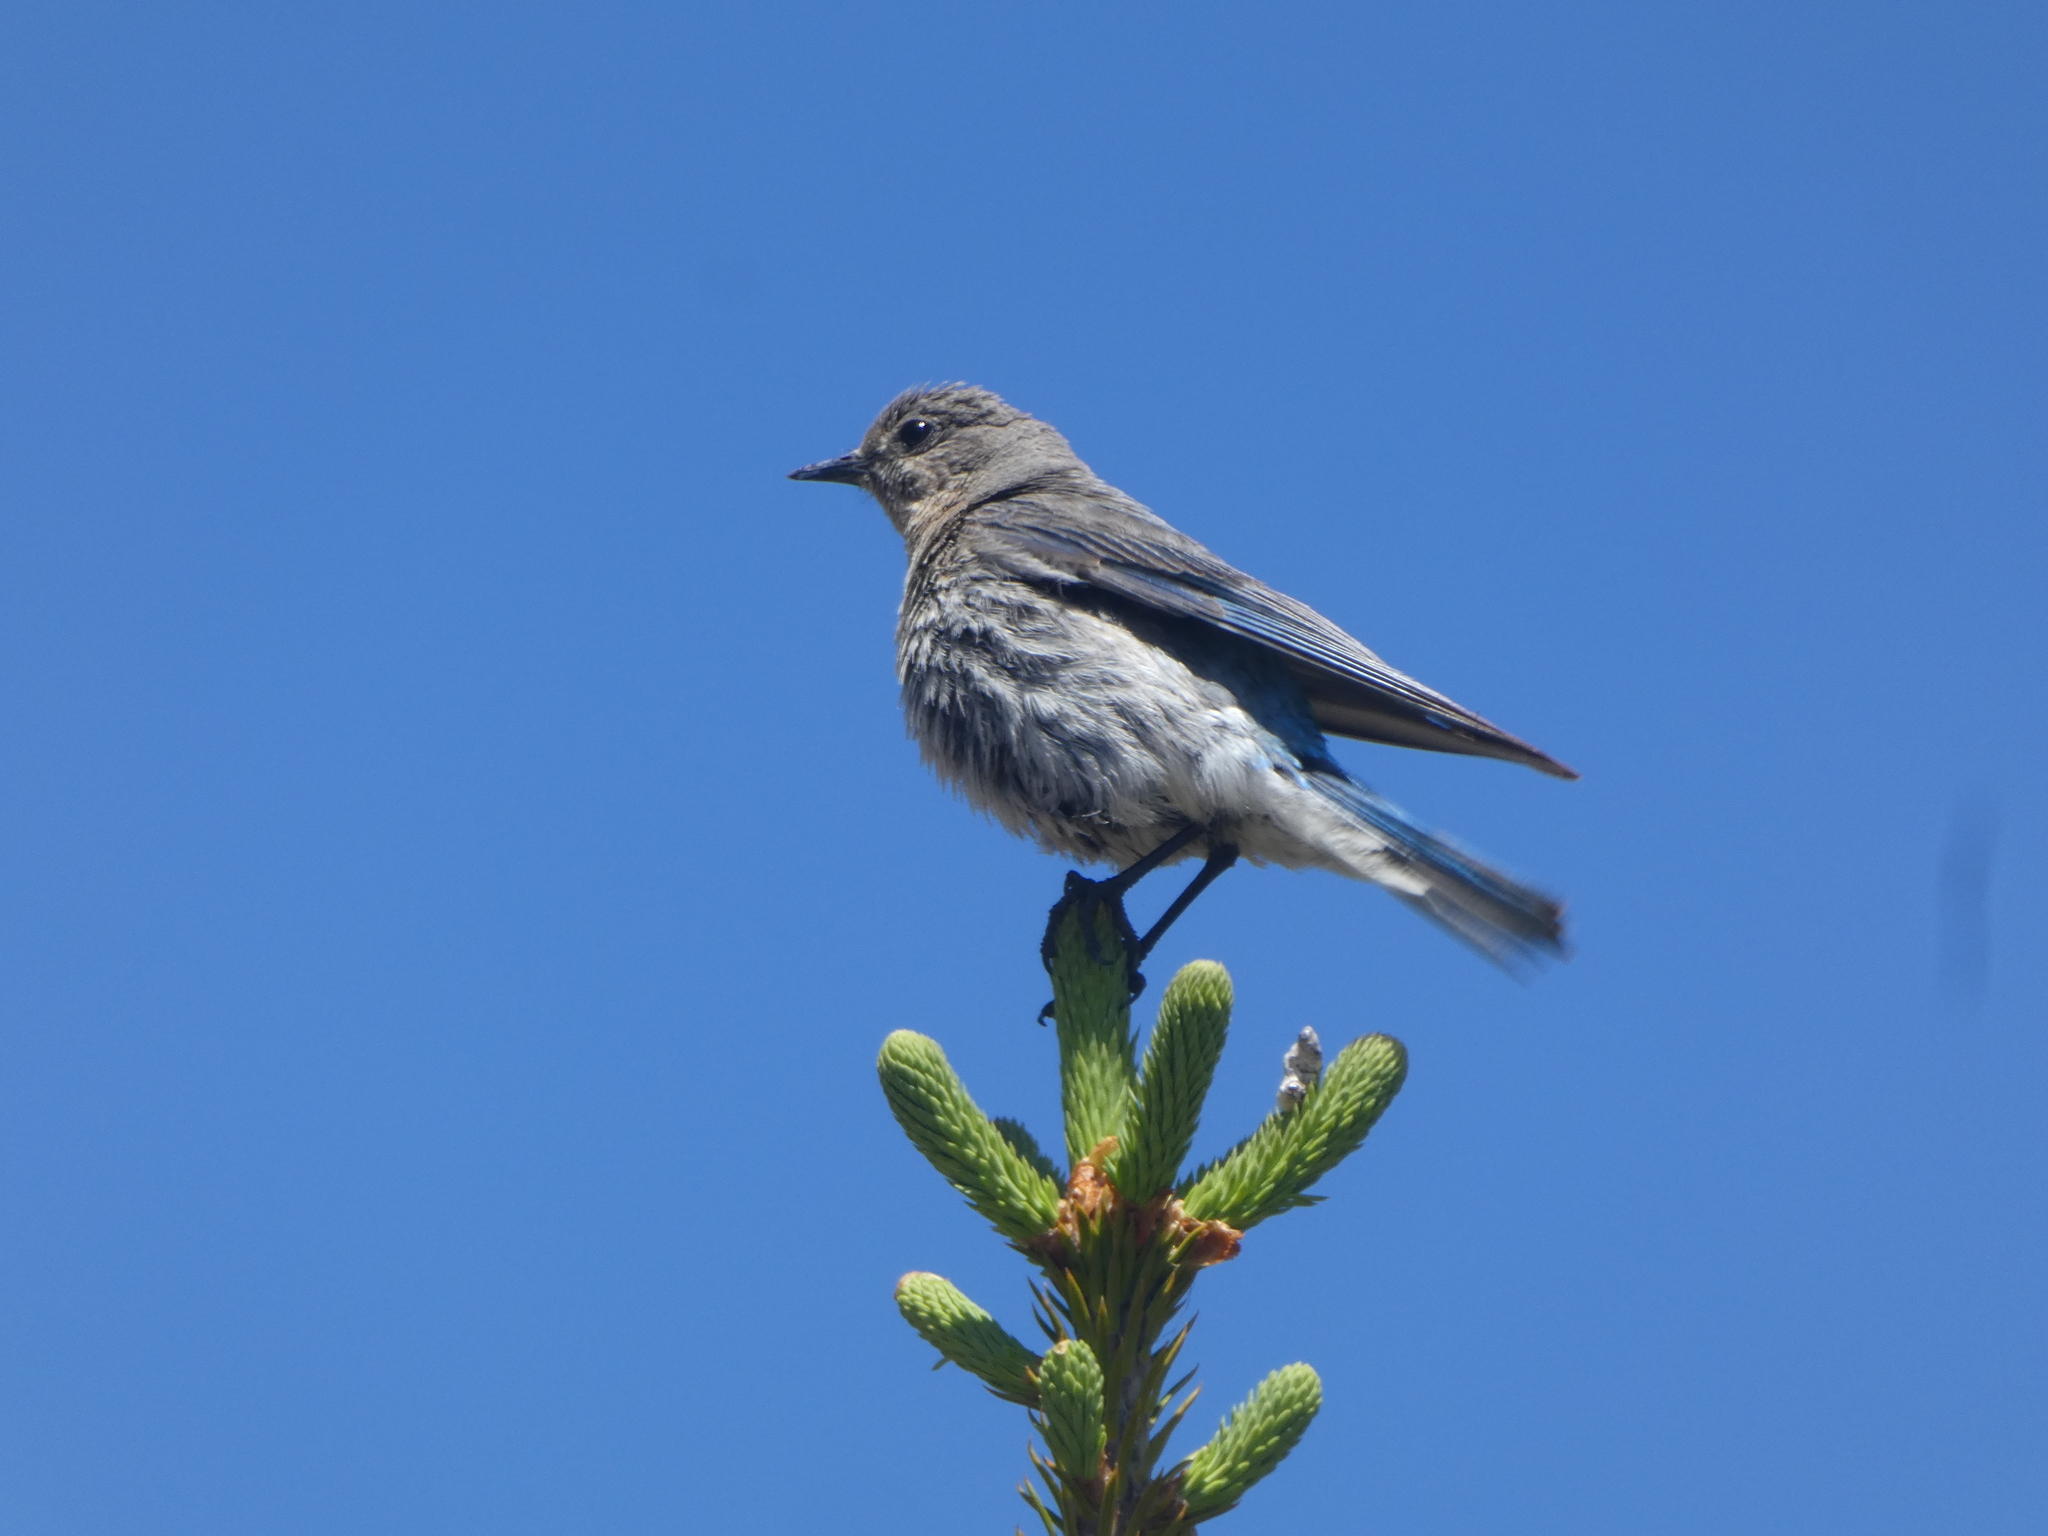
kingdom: Animalia
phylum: Chordata
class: Aves
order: Passeriformes
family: Turdidae
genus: Sialia
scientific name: Sialia currucoides
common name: Mountain bluebird
